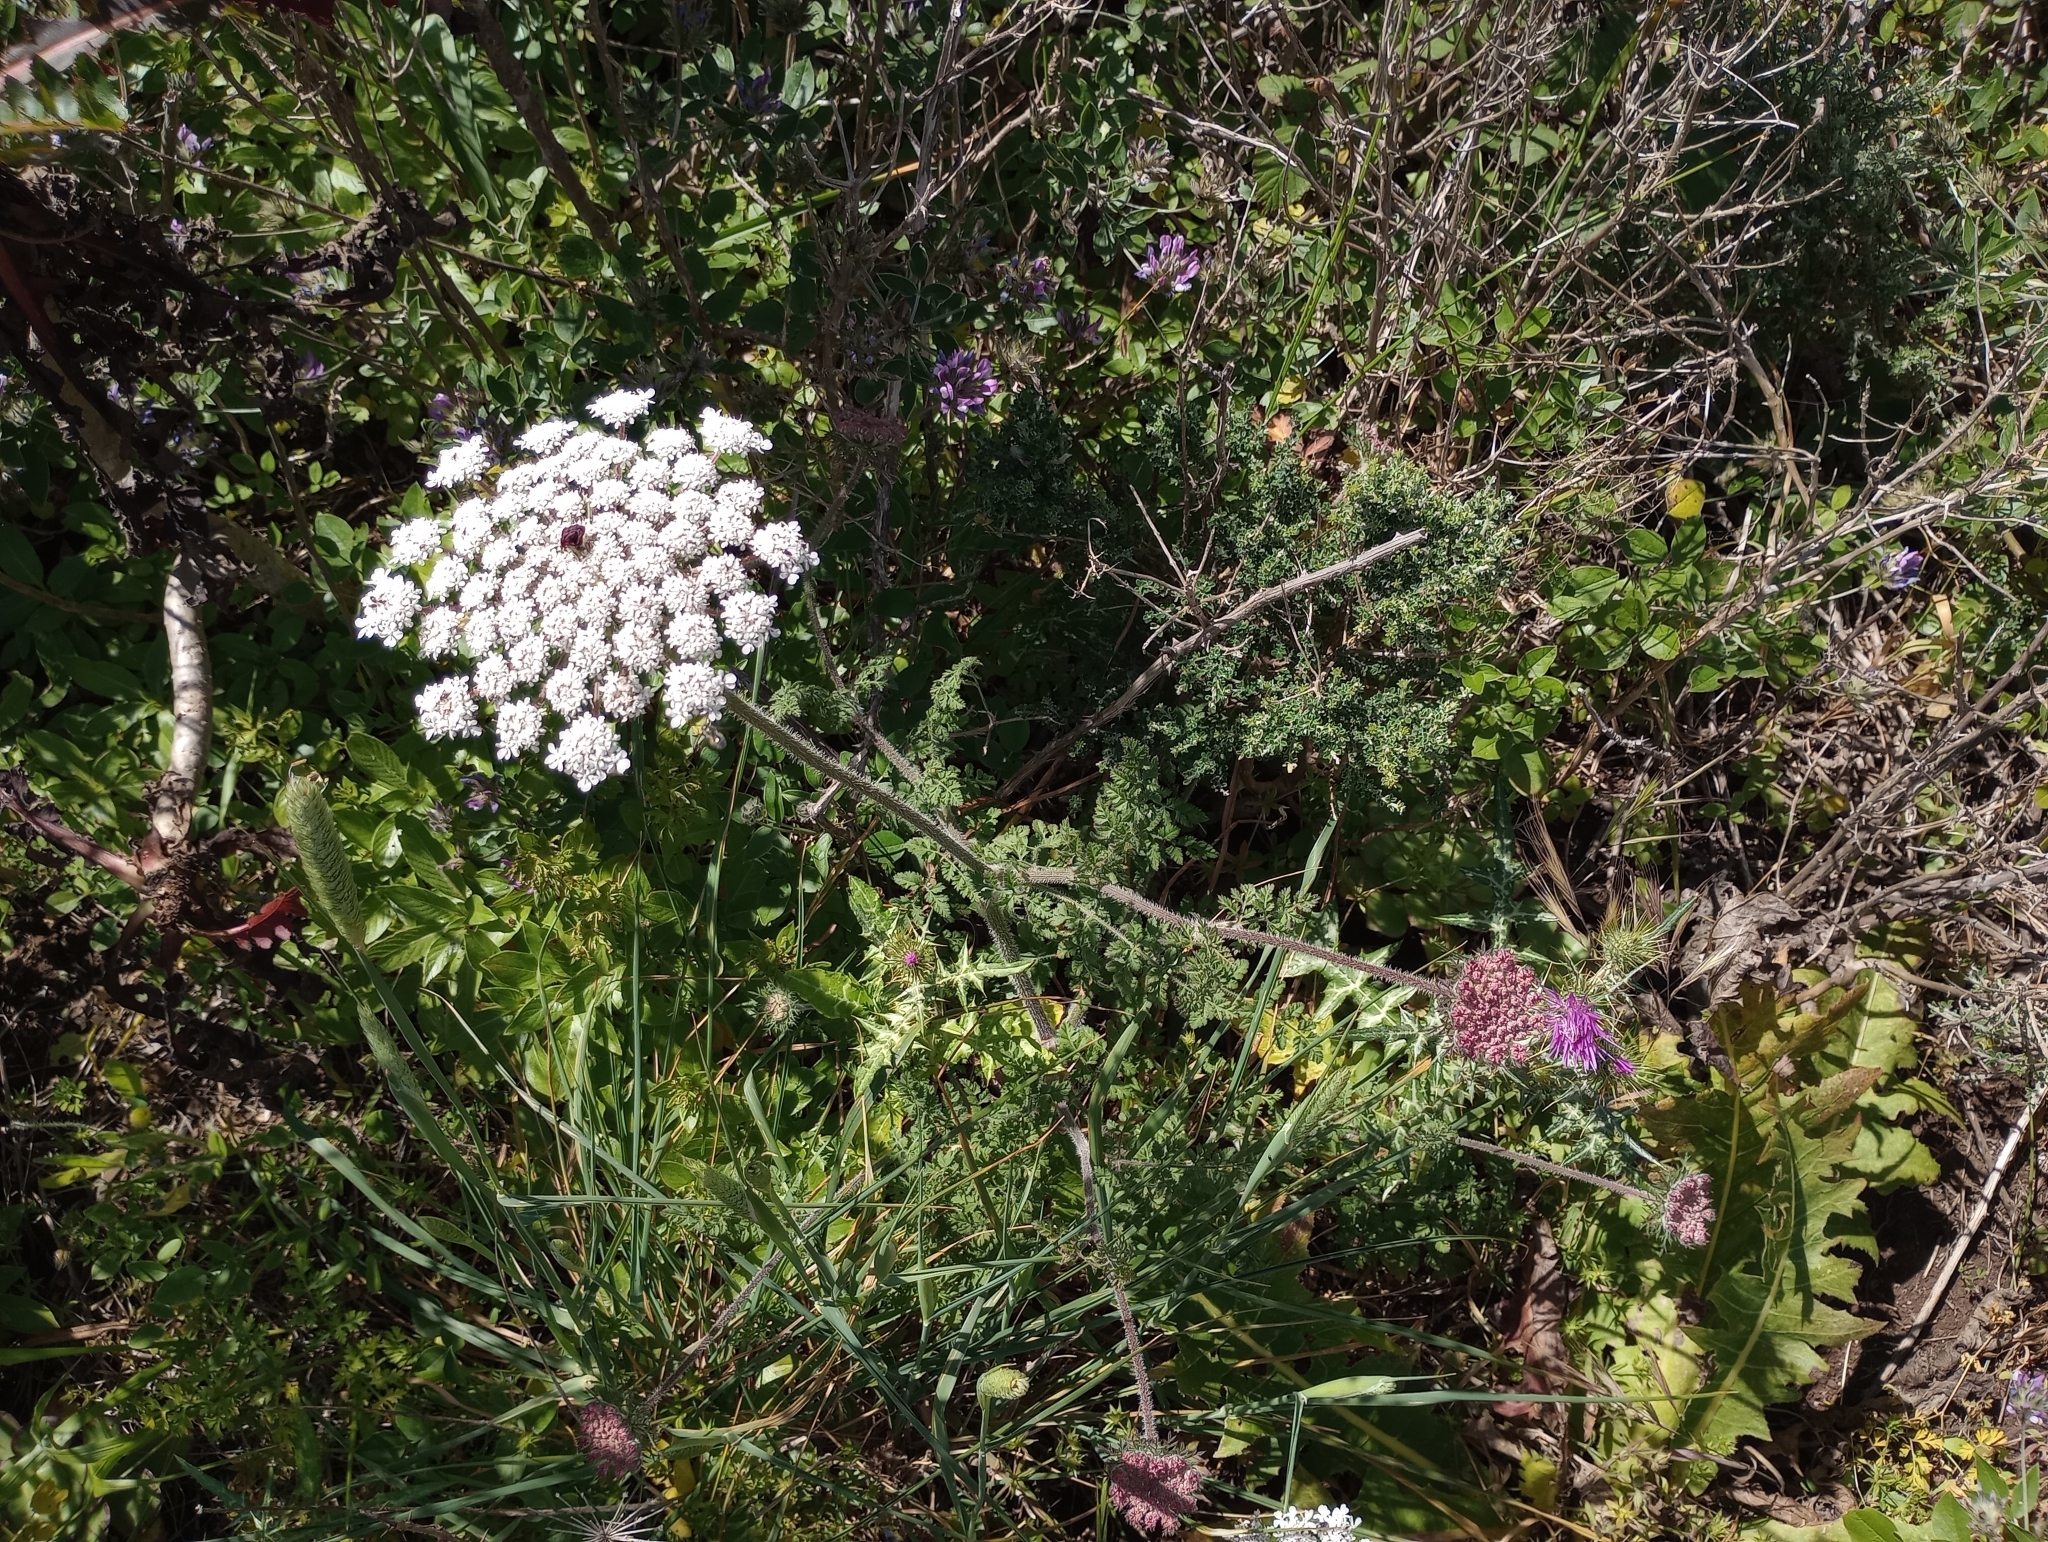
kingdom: Plantae
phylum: Tracheophyta
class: Magnoliopsida
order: Apiales
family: Apiaceae
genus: Daucus
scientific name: Daucus carota
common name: Wild carrot
